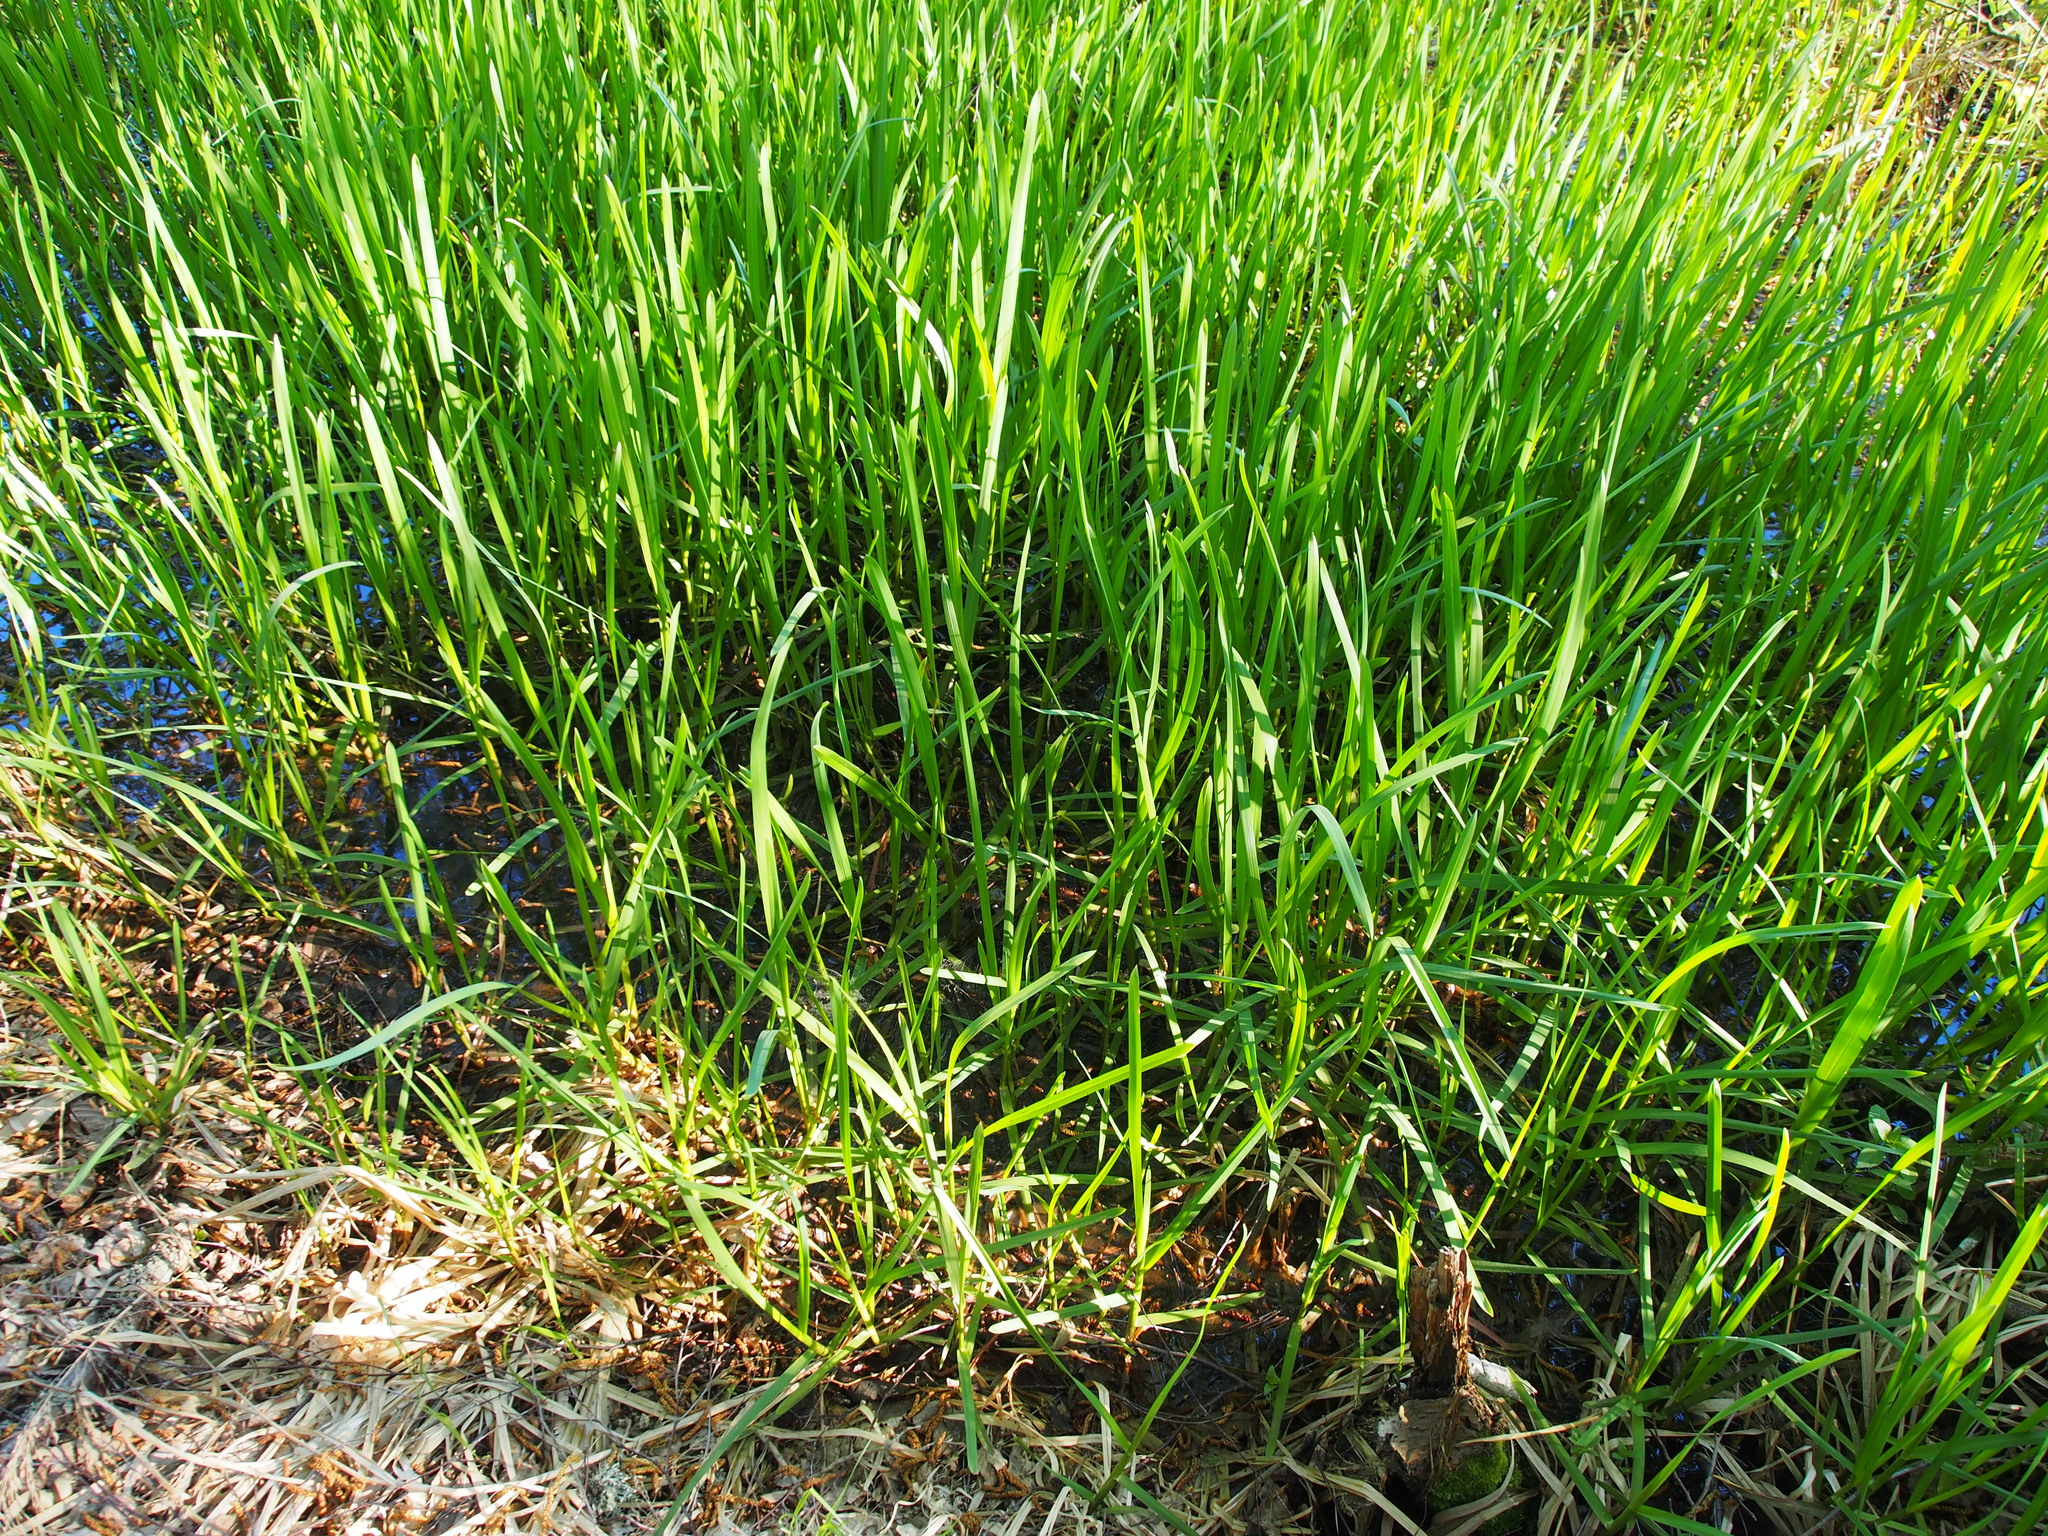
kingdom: Plantae
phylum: Tracheophyta
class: Liliopsida
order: Poales
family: Poaceae
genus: Glyceria
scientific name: Glyceria maxima
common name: Reed mannagrass
